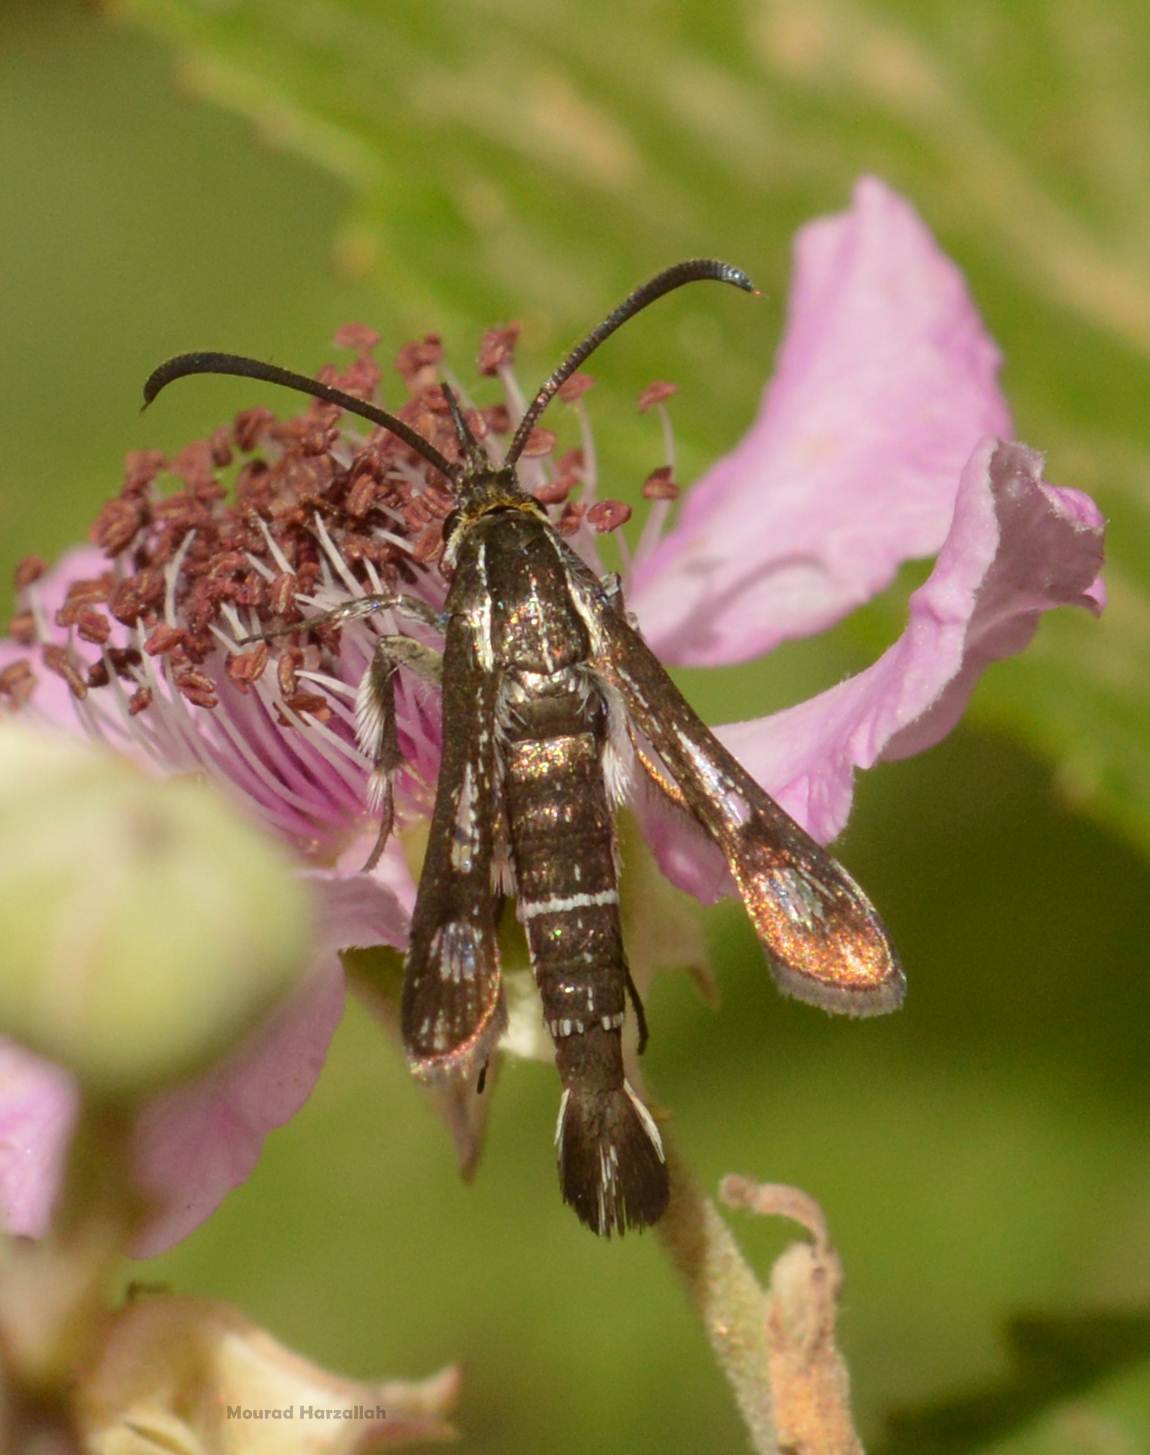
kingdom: Animalia
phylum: Arthropoda
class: Insecta
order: Lepidoptera
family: Sesiidae
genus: Pyropteron
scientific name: Pyropteron leucomelaena
